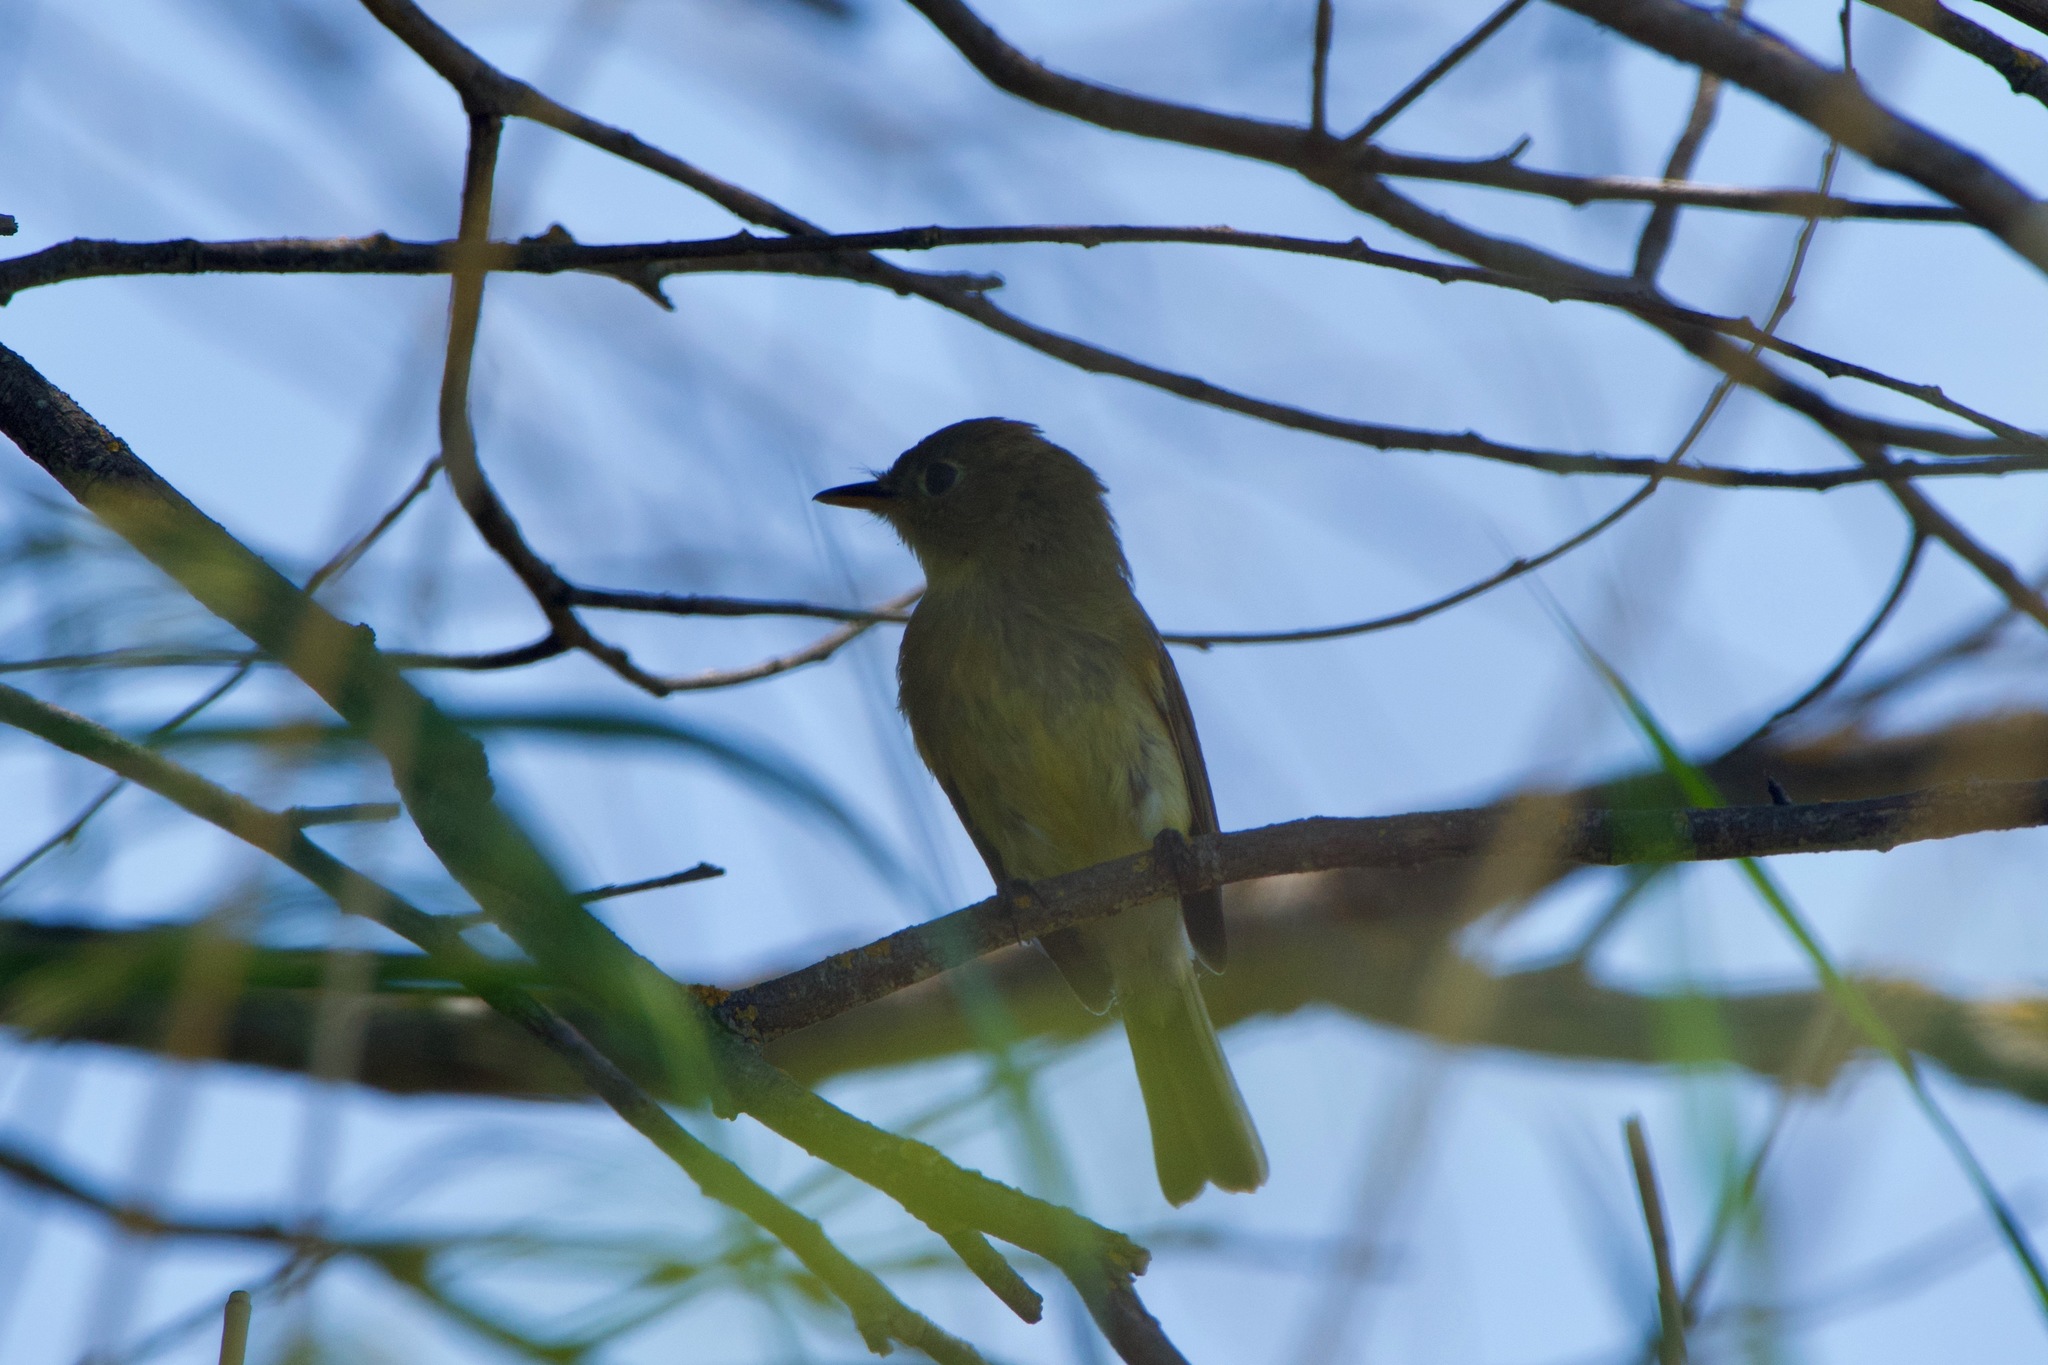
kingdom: Animalia
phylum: Chordata
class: Aves
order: Passeriformes
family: Tyrannidae
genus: Empidonax
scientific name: Empidonax difficilis
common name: Pacific-slope flycatcher
